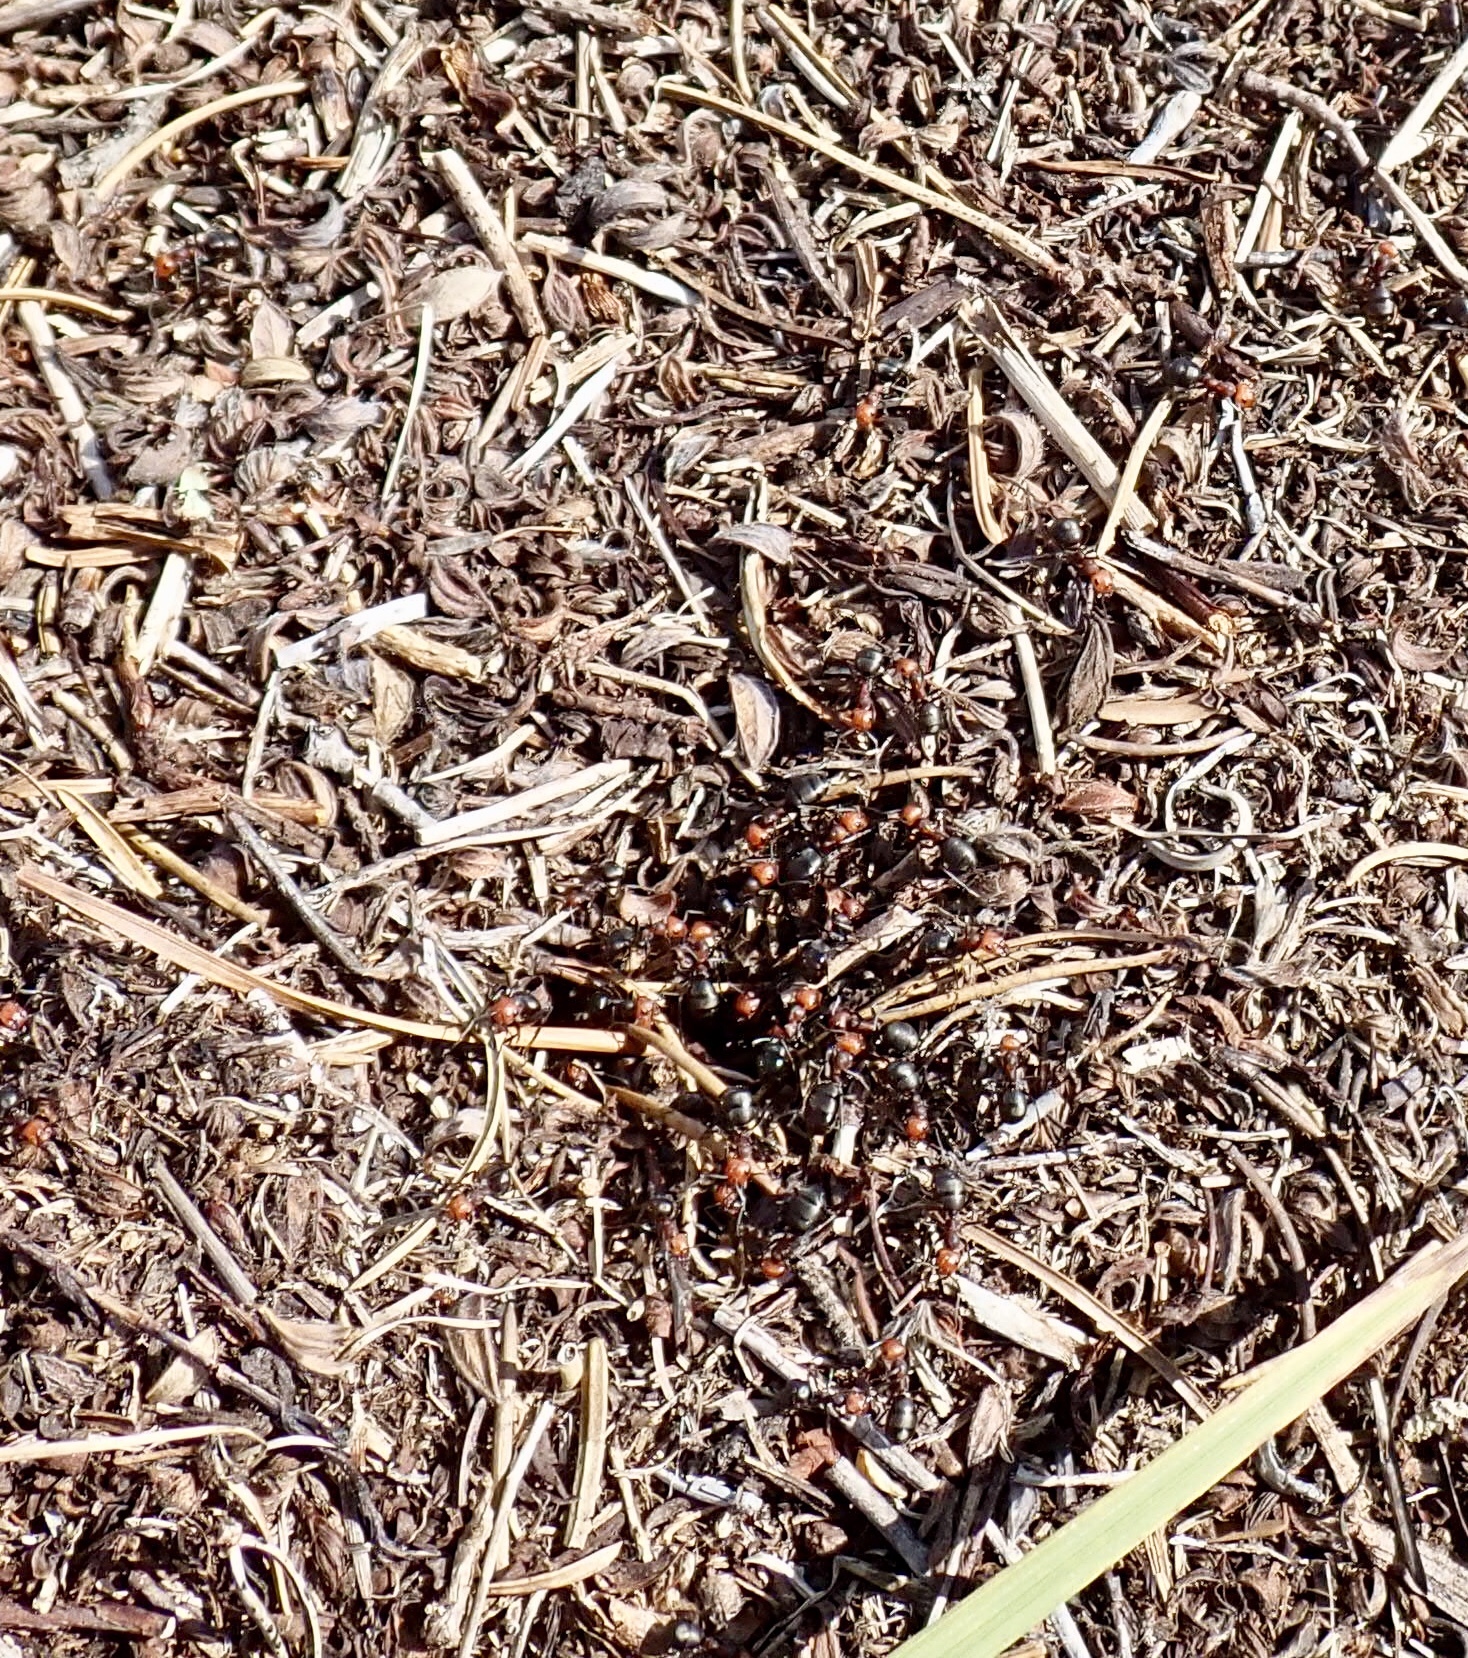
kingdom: Animalia
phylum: Arthropoda
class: Insecta
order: Hymenoptera
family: Formicidae
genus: Formica
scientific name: Formica obscuripes
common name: Western thatching ant
